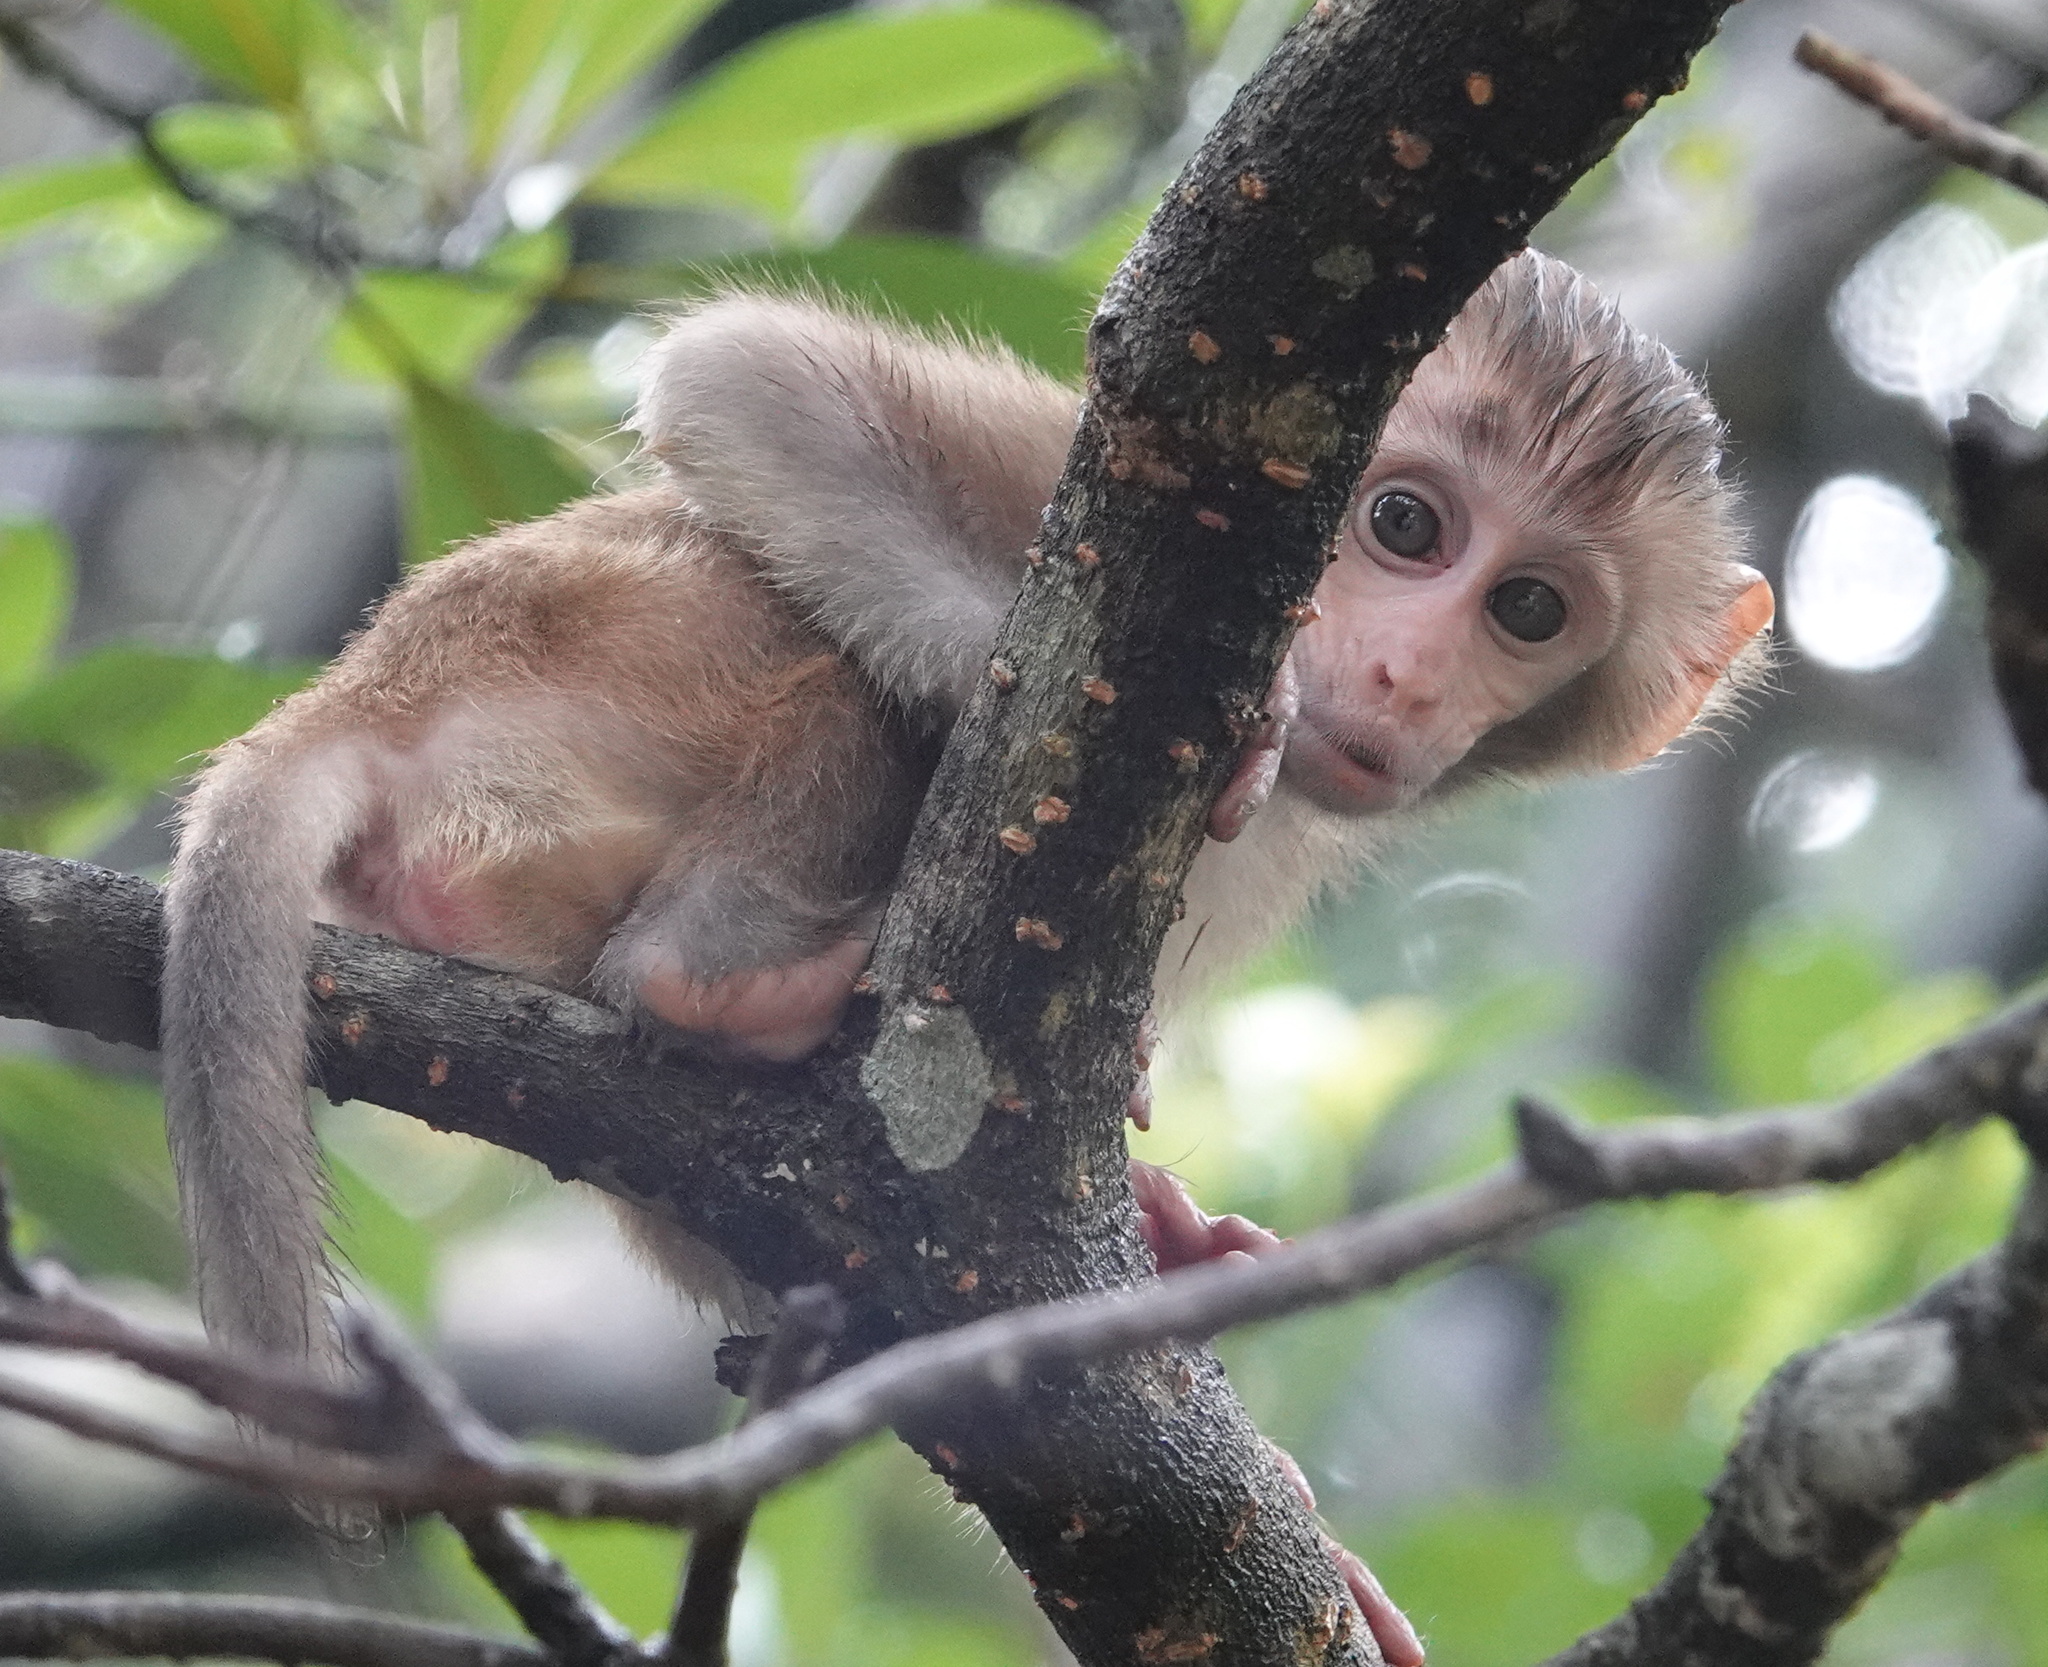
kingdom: Animalia
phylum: Chordata
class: Mammalia
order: Primates
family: Cercopithecidae
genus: Macaca
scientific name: Macaca mulatta
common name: Rhesus monkey
